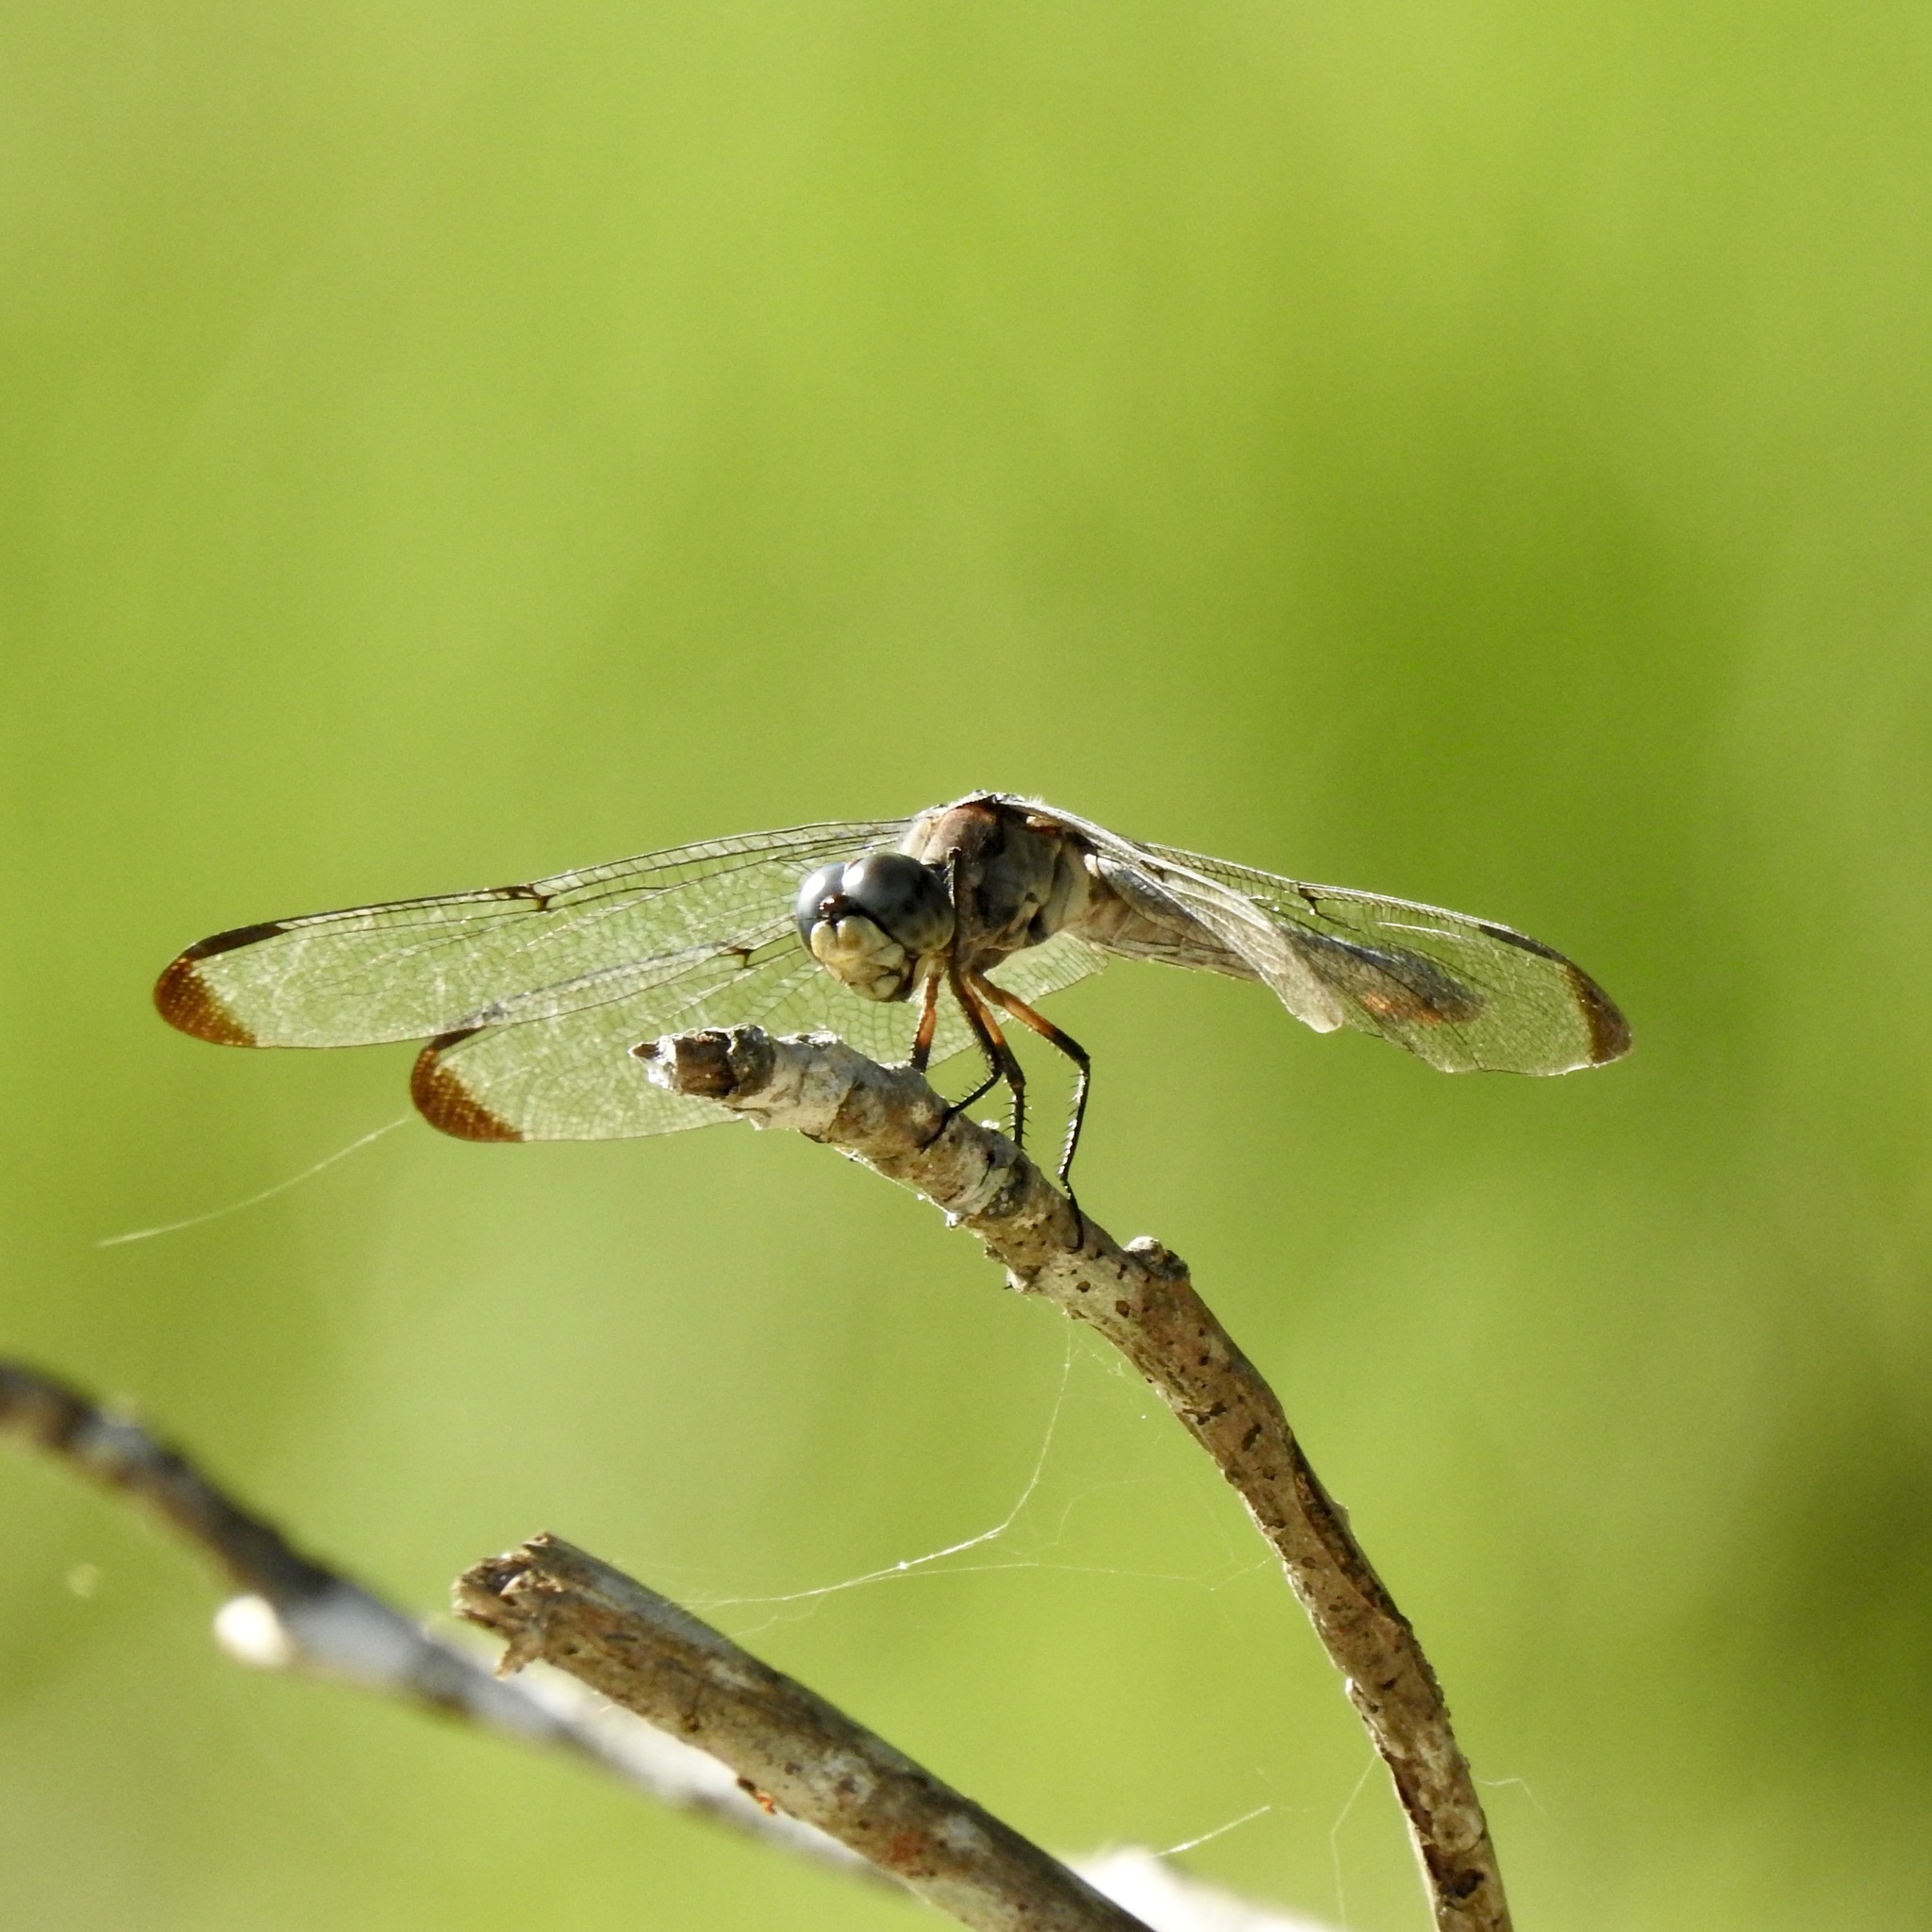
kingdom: Animalia
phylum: Arthropoda
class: Insecta
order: Odonata
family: Libellulidae
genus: Libellula
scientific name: Libellula vibrans
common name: Great blue skimmer
